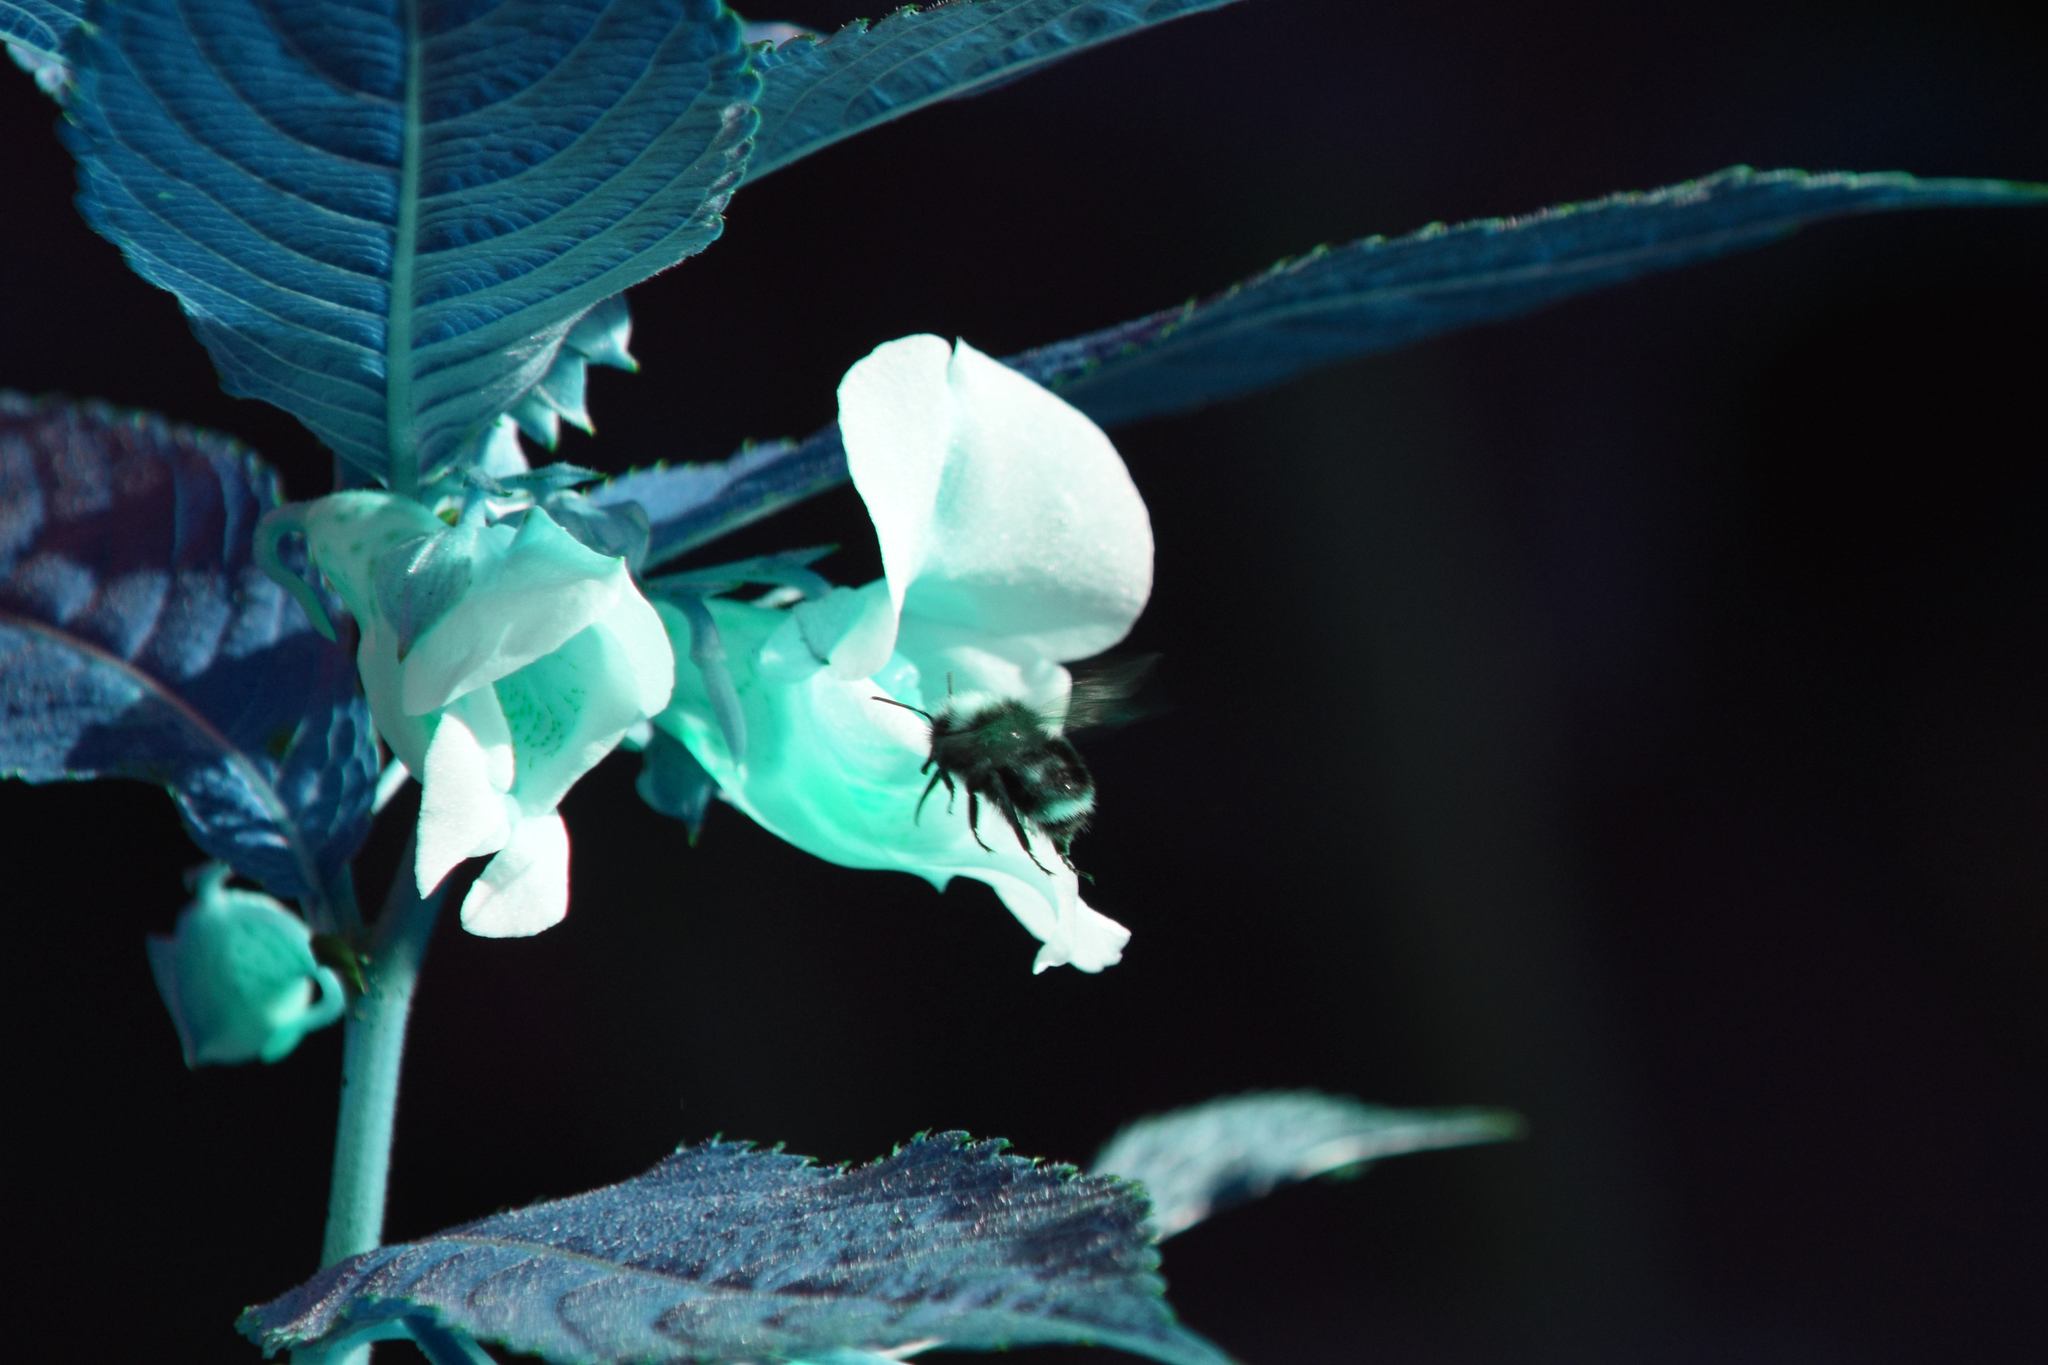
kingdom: Animalia
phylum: Arthropoda
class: Insecta
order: Hymenoptera
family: Apidae
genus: Pyrobombus
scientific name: Pyrobombus
